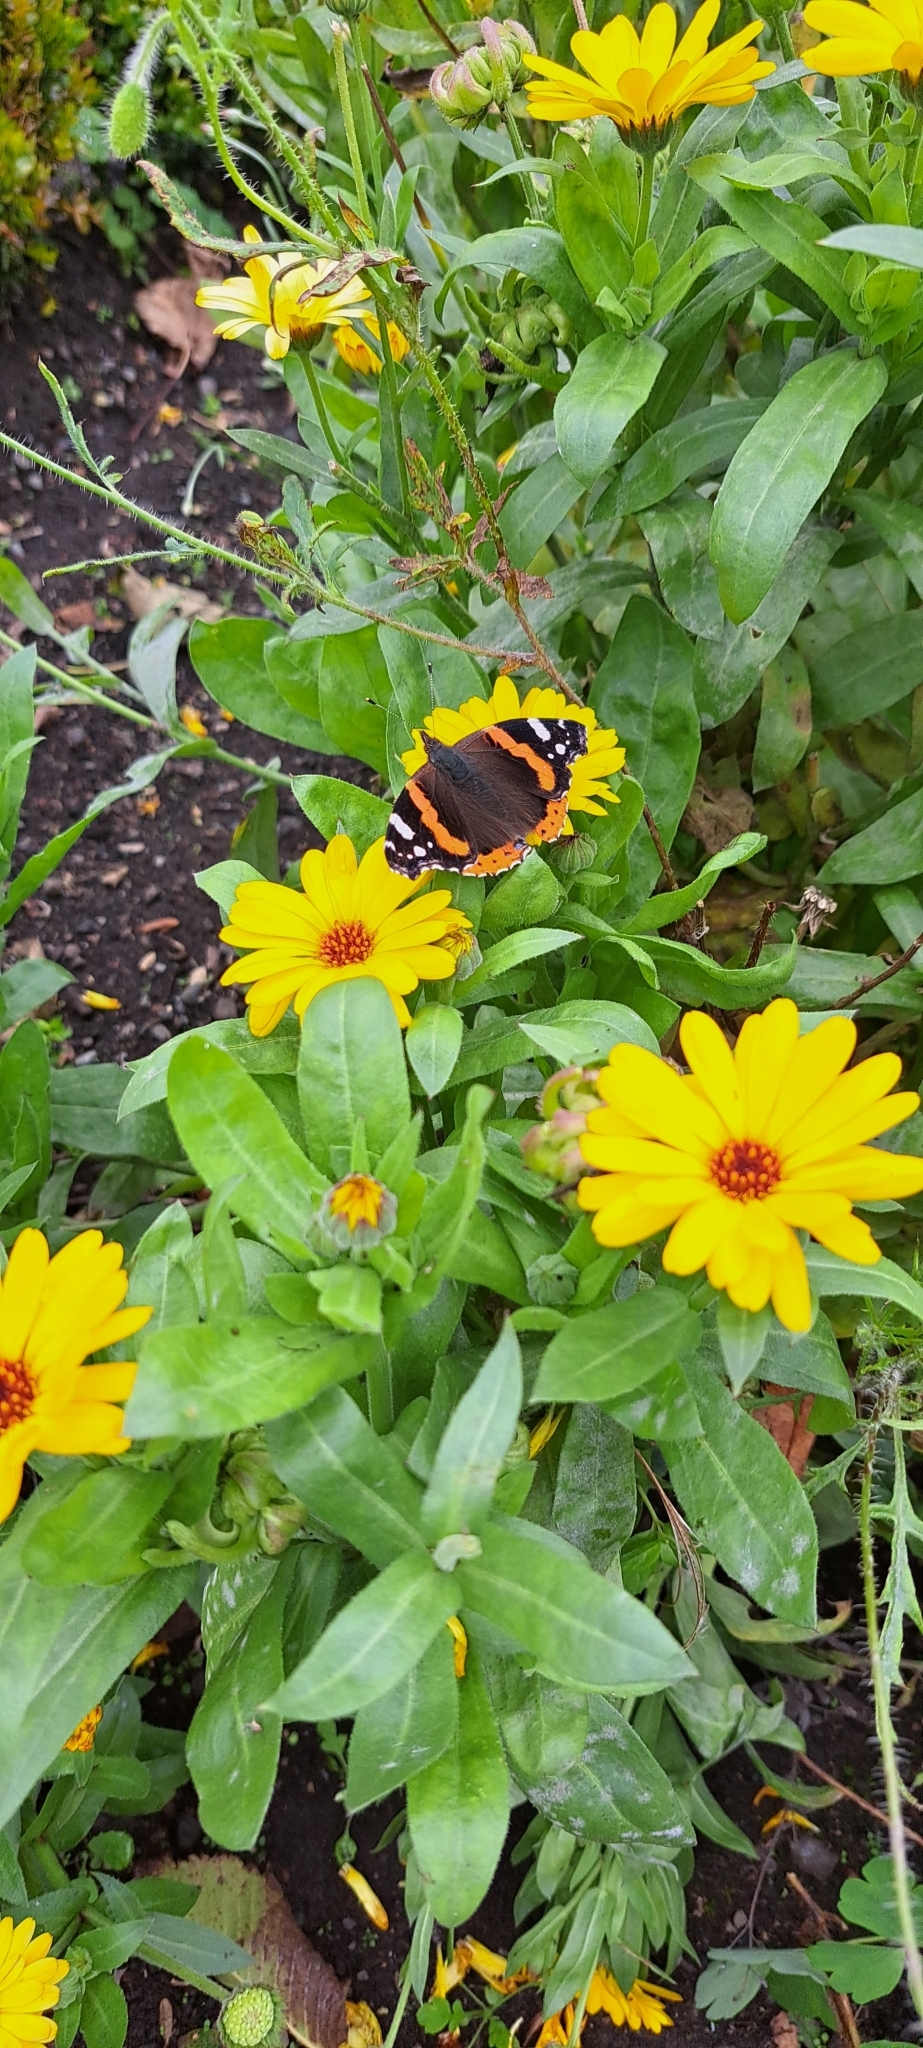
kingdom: Animalia
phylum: Arthropoda
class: Insecta
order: Lepidoptera
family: Nymphalidae
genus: Vanessa
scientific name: Vanessa atalanta
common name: Red admiral
